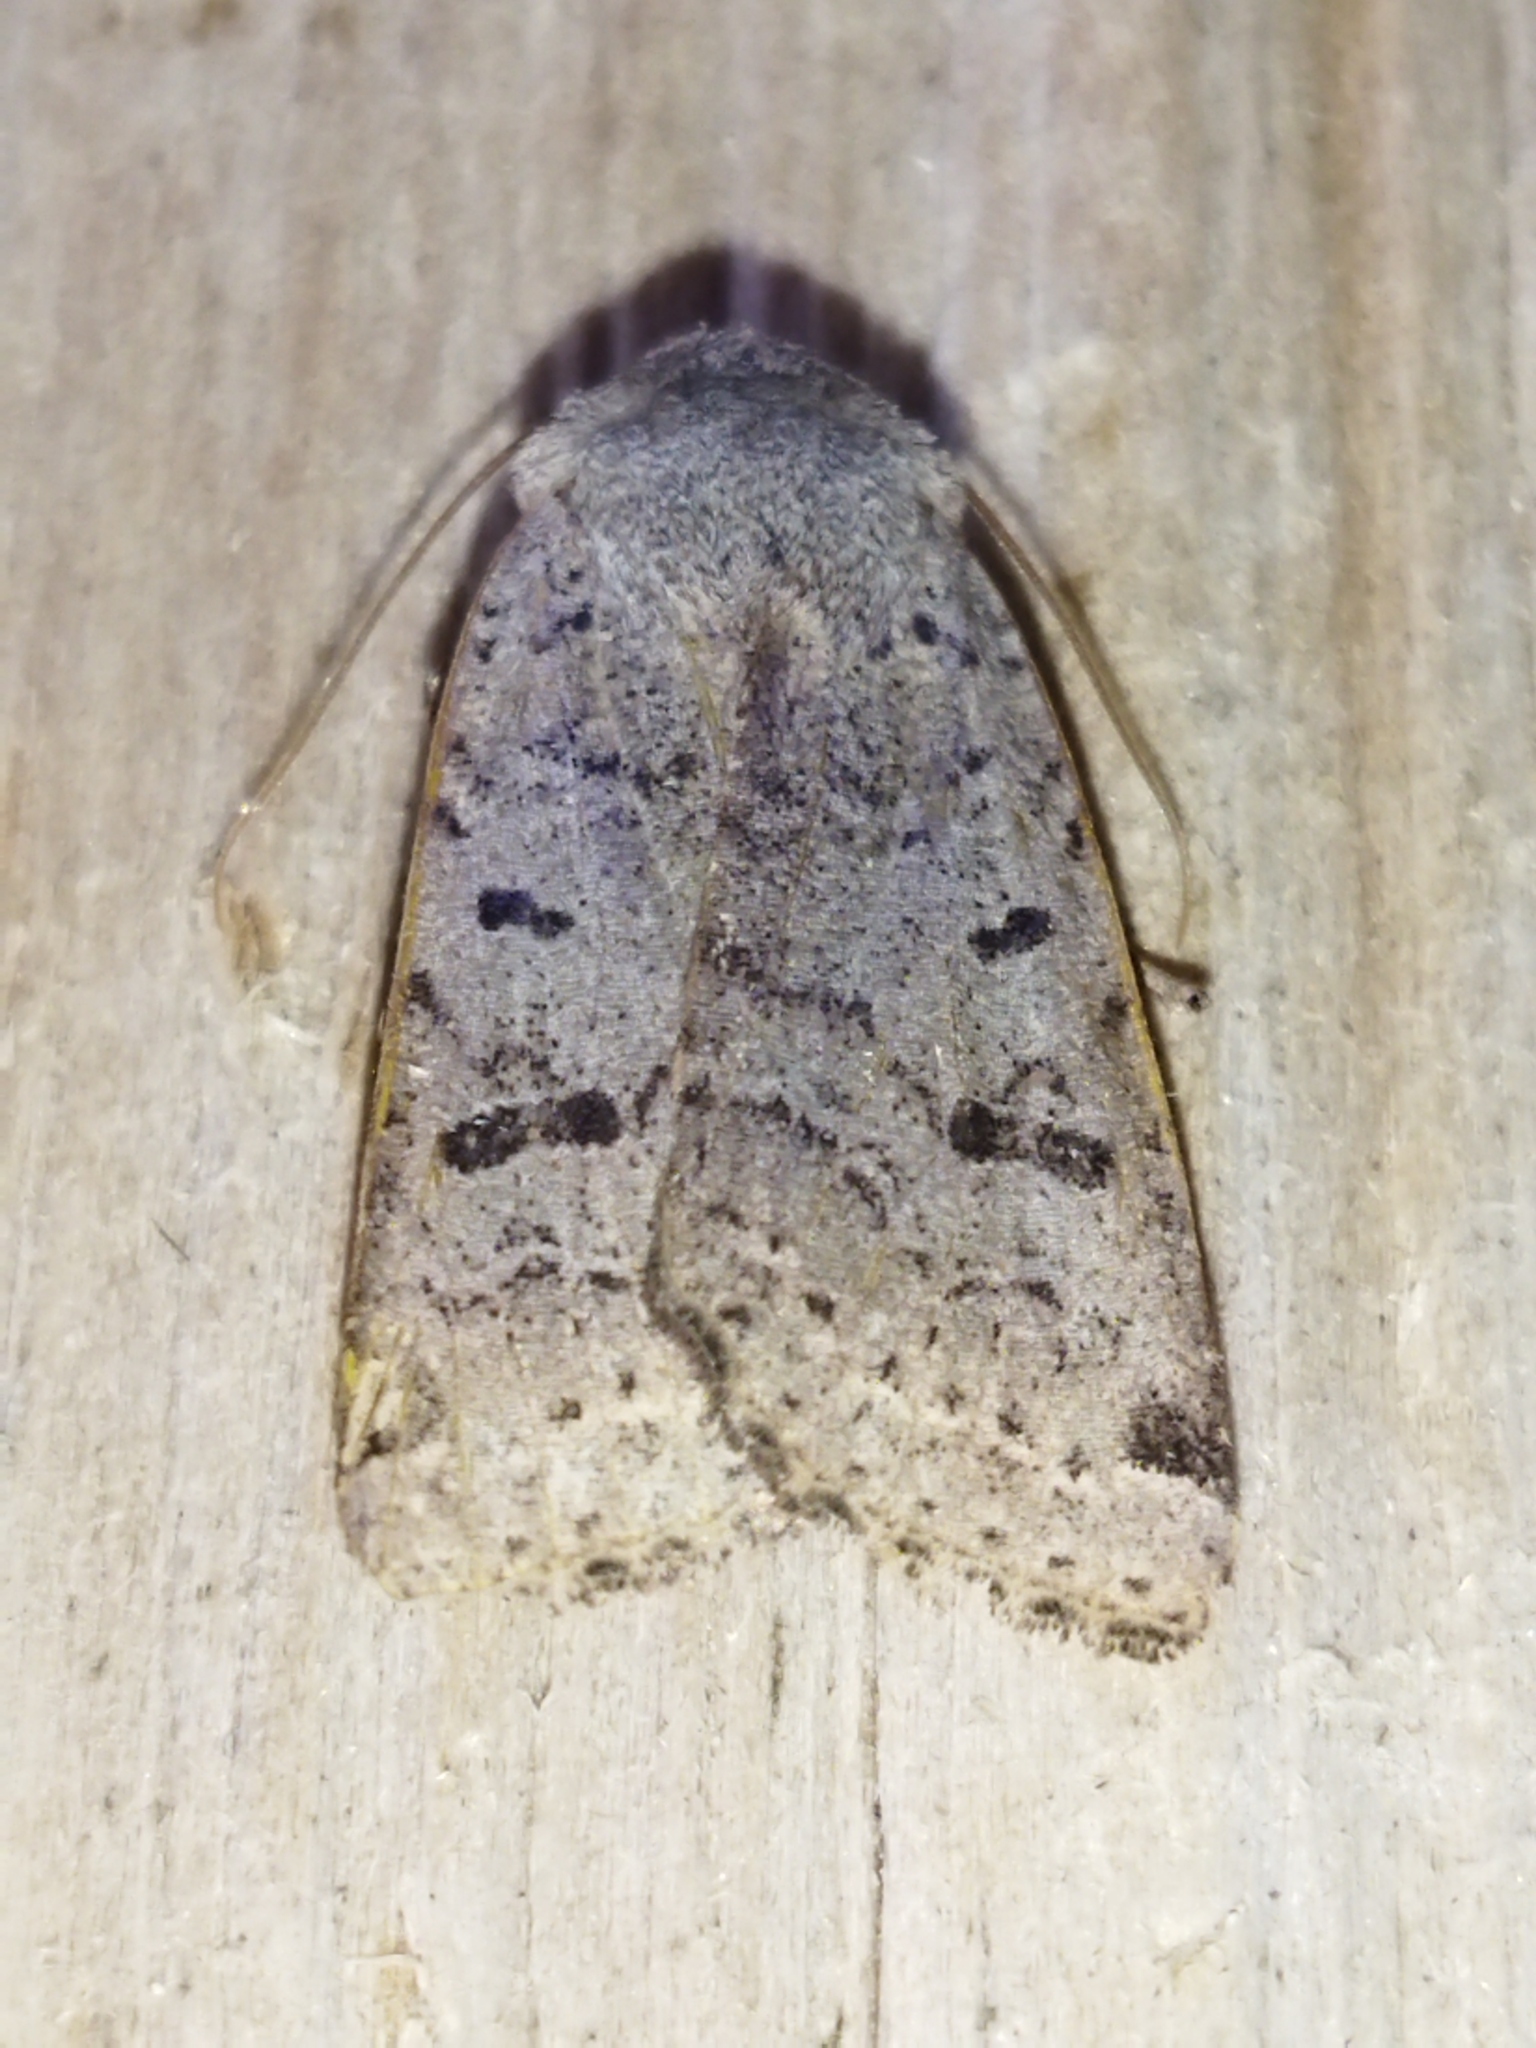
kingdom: Animalia
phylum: Arthropoda
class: Insecta
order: Lepidoptera
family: Noctuidae
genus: Agrochola
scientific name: Agrochola lychnidis
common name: Beaded chestnut
